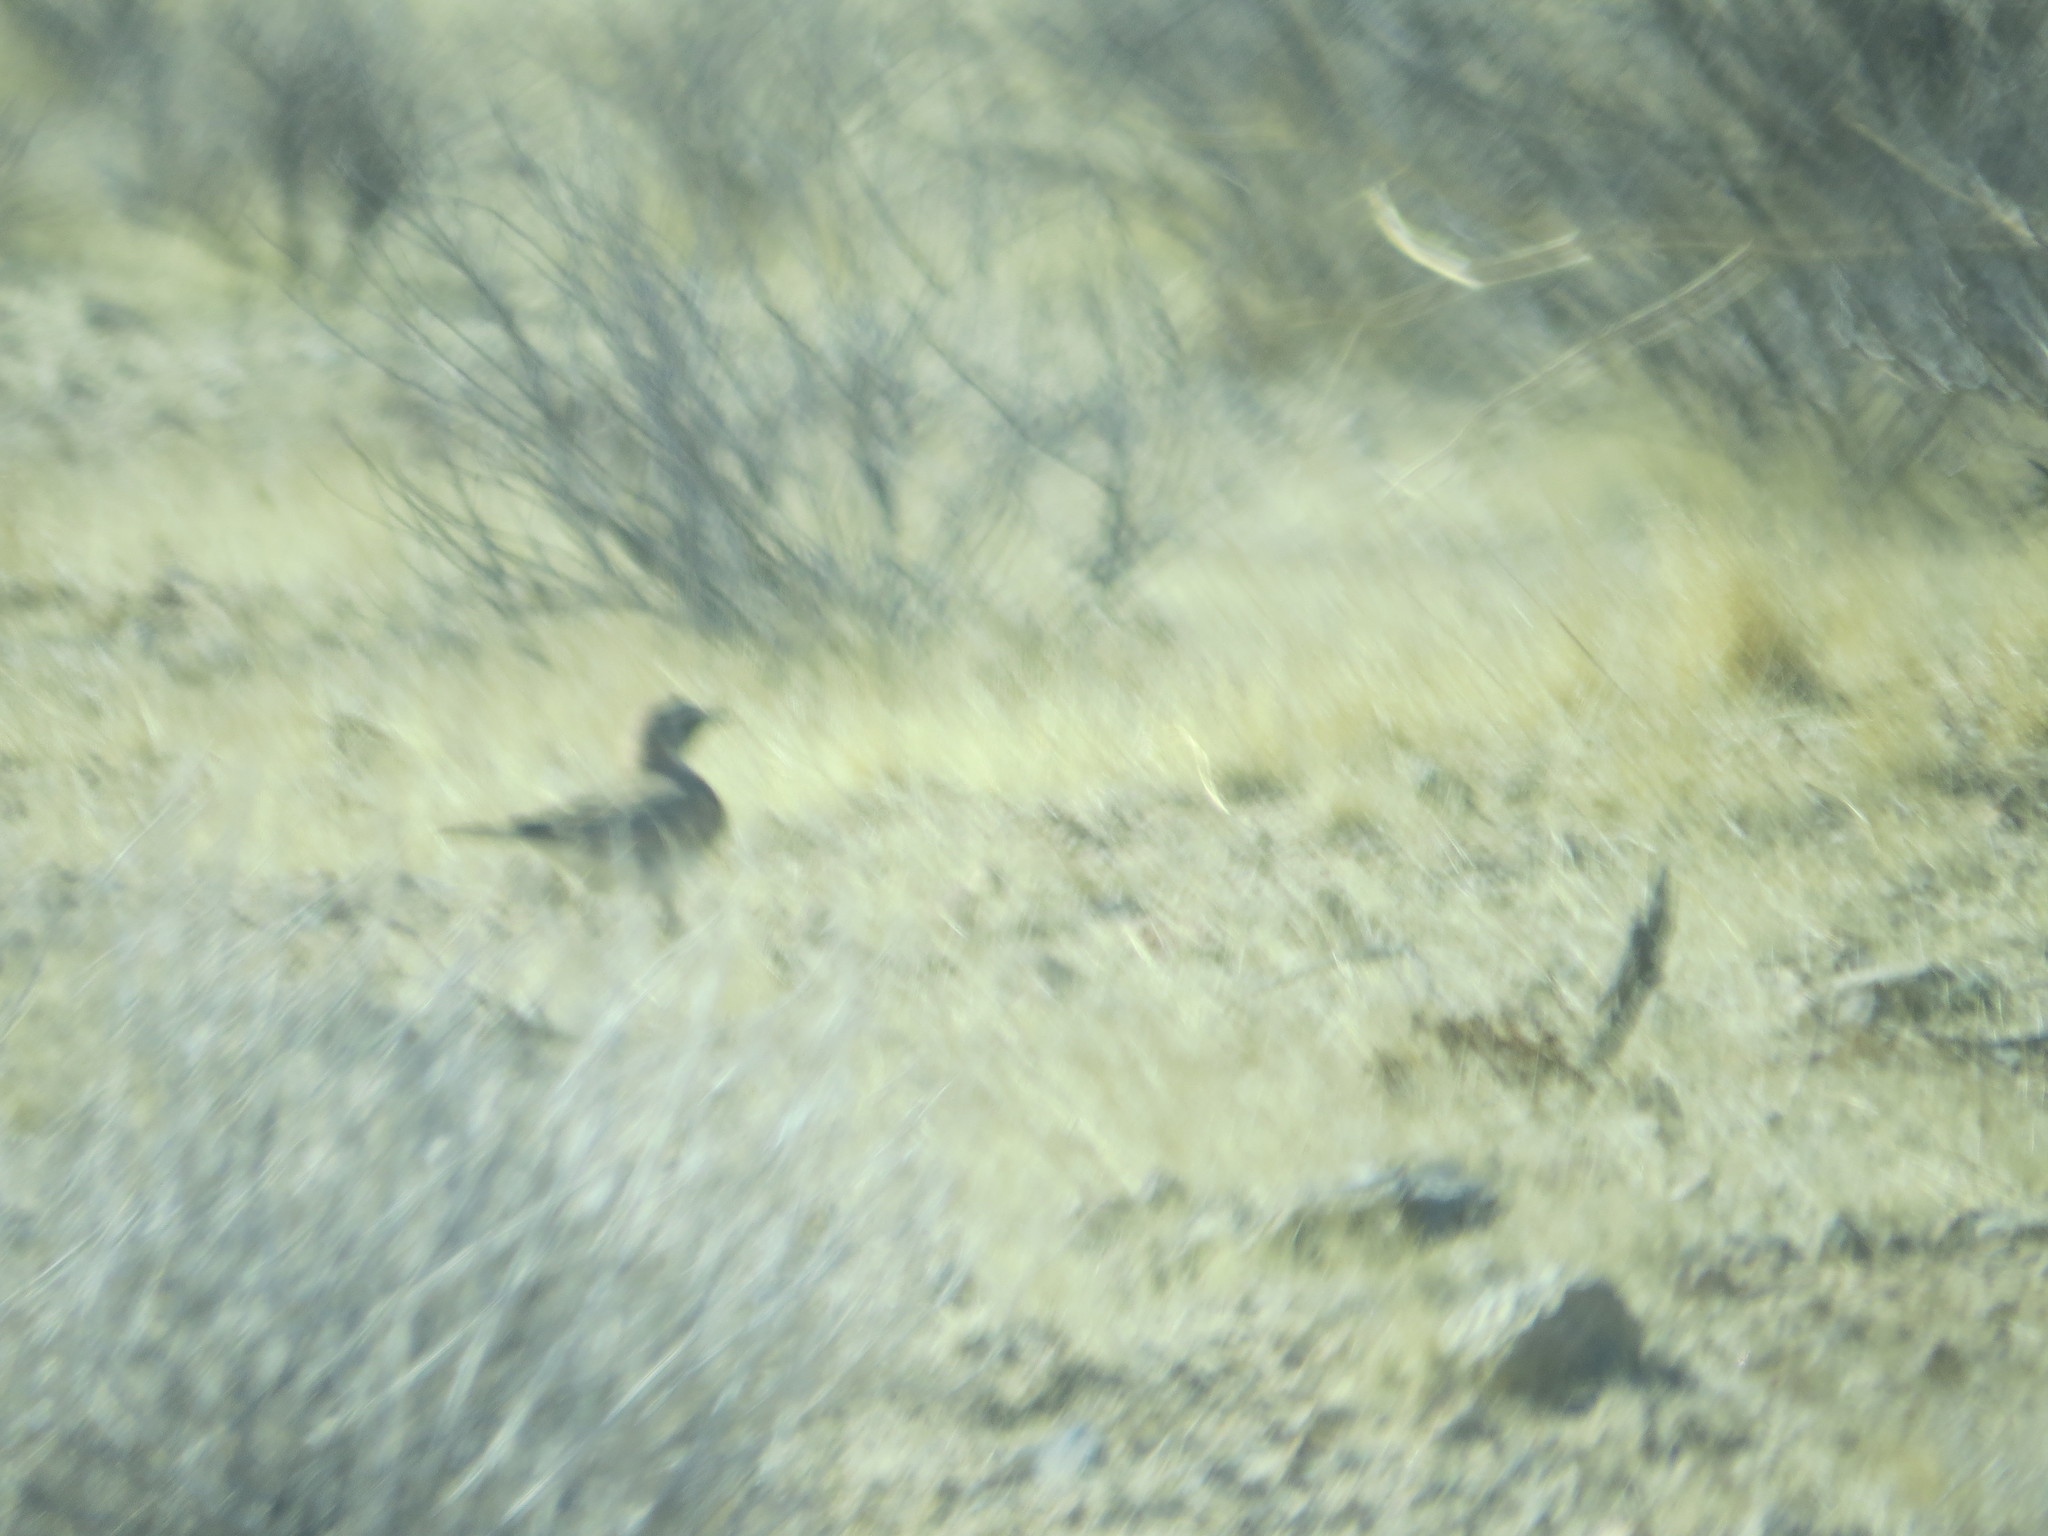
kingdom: Animalia
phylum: Chordata
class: Aves
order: Passeriformes
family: Alaudidae
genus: Eremophila
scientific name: Eremophila alpestris
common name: Horned lark
